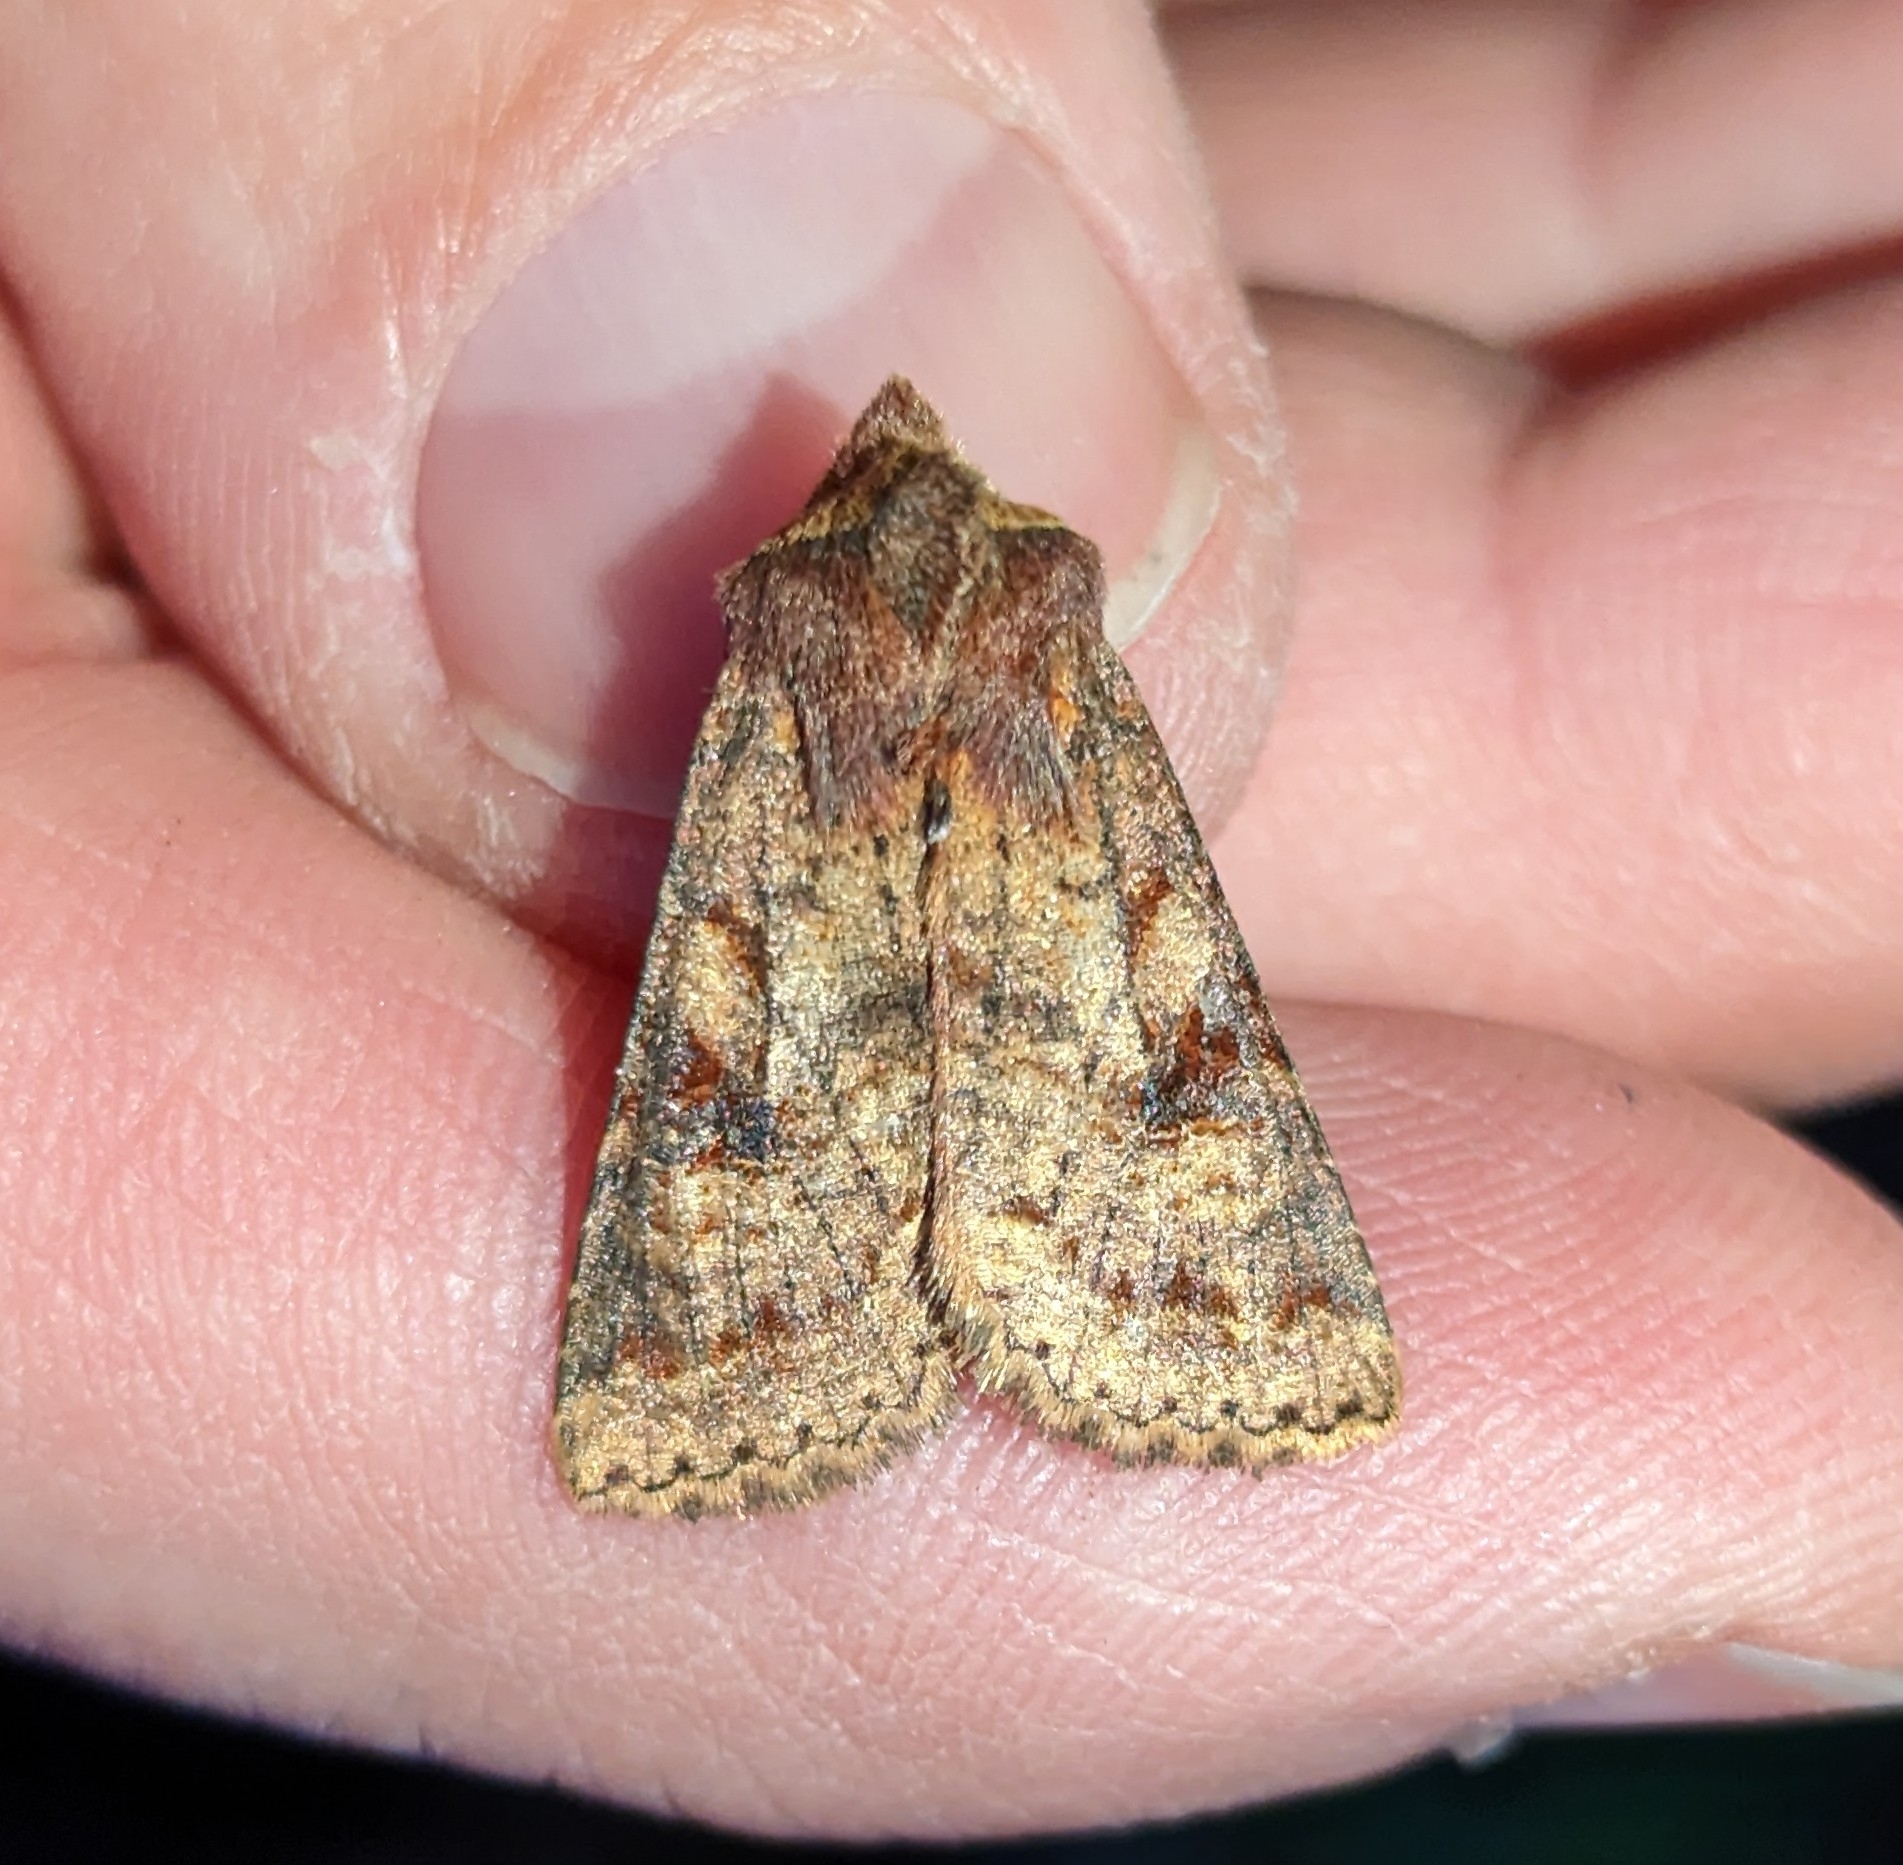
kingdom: Animalia
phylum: Arthropoda
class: Insecta
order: Lepidoptera
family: Noctuidae
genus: Orthosia
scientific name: Orthosia praeses
